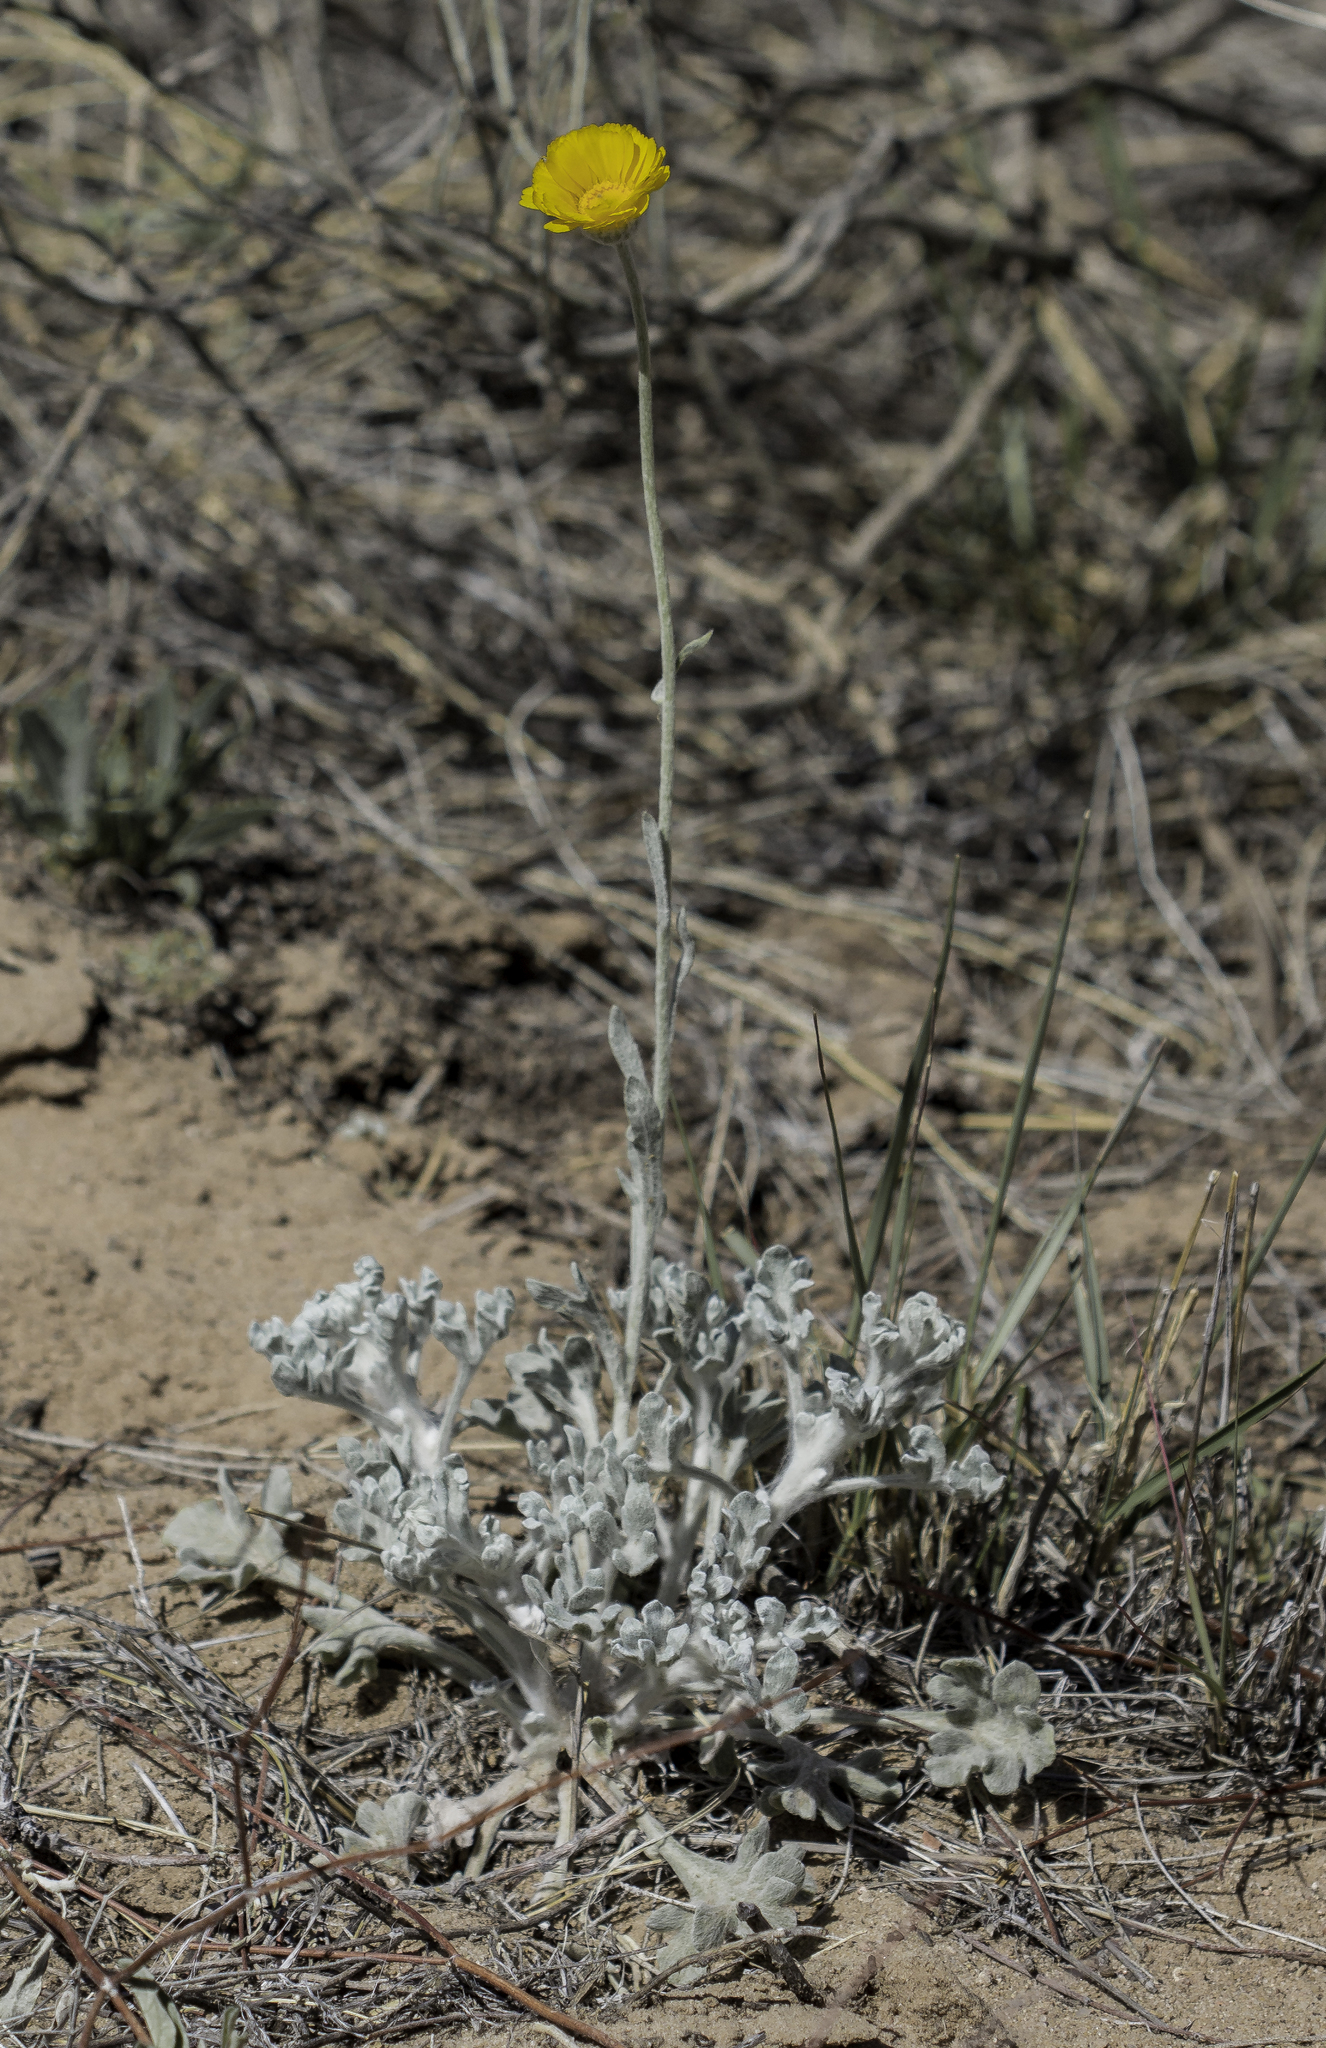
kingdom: Plantae
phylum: Tracheophyta
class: Magnoliopsida
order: Asterales
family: Asteraceae
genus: Baileya
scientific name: Baileya multiradiata
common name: Desert-marigold
